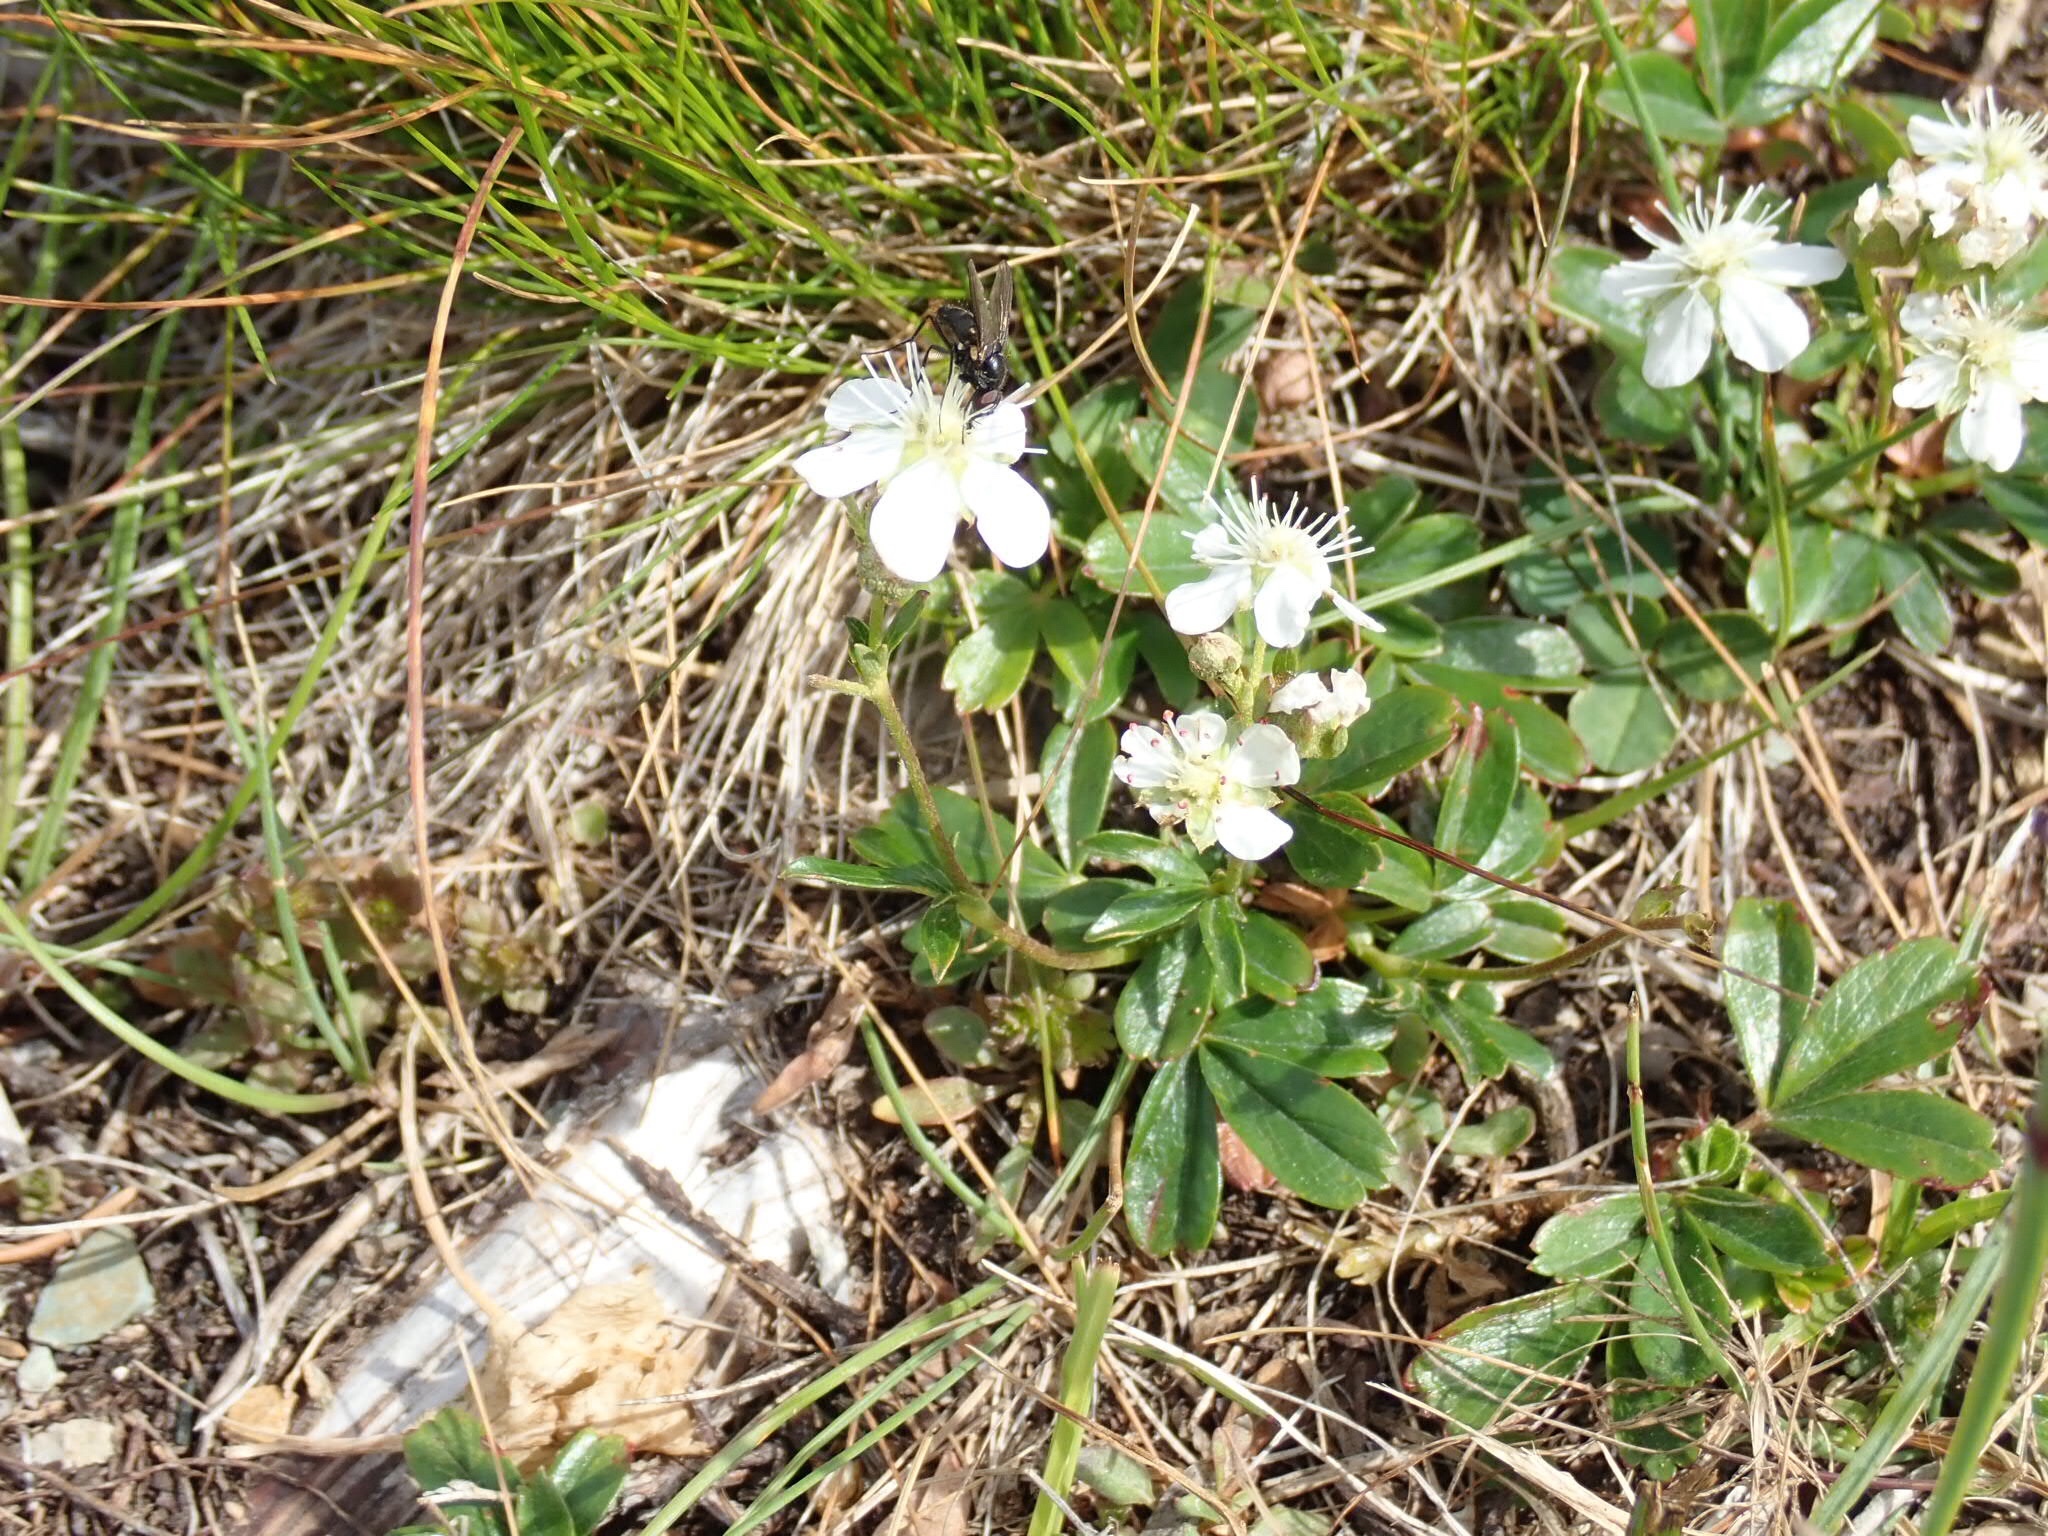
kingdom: Plantae
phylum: Tracheophyta
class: Magnoliopsida
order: Rosales
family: Rosaceae
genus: Sibbaldia
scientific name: Sibbaldia tridentata
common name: Three-toothed cinquefoil
